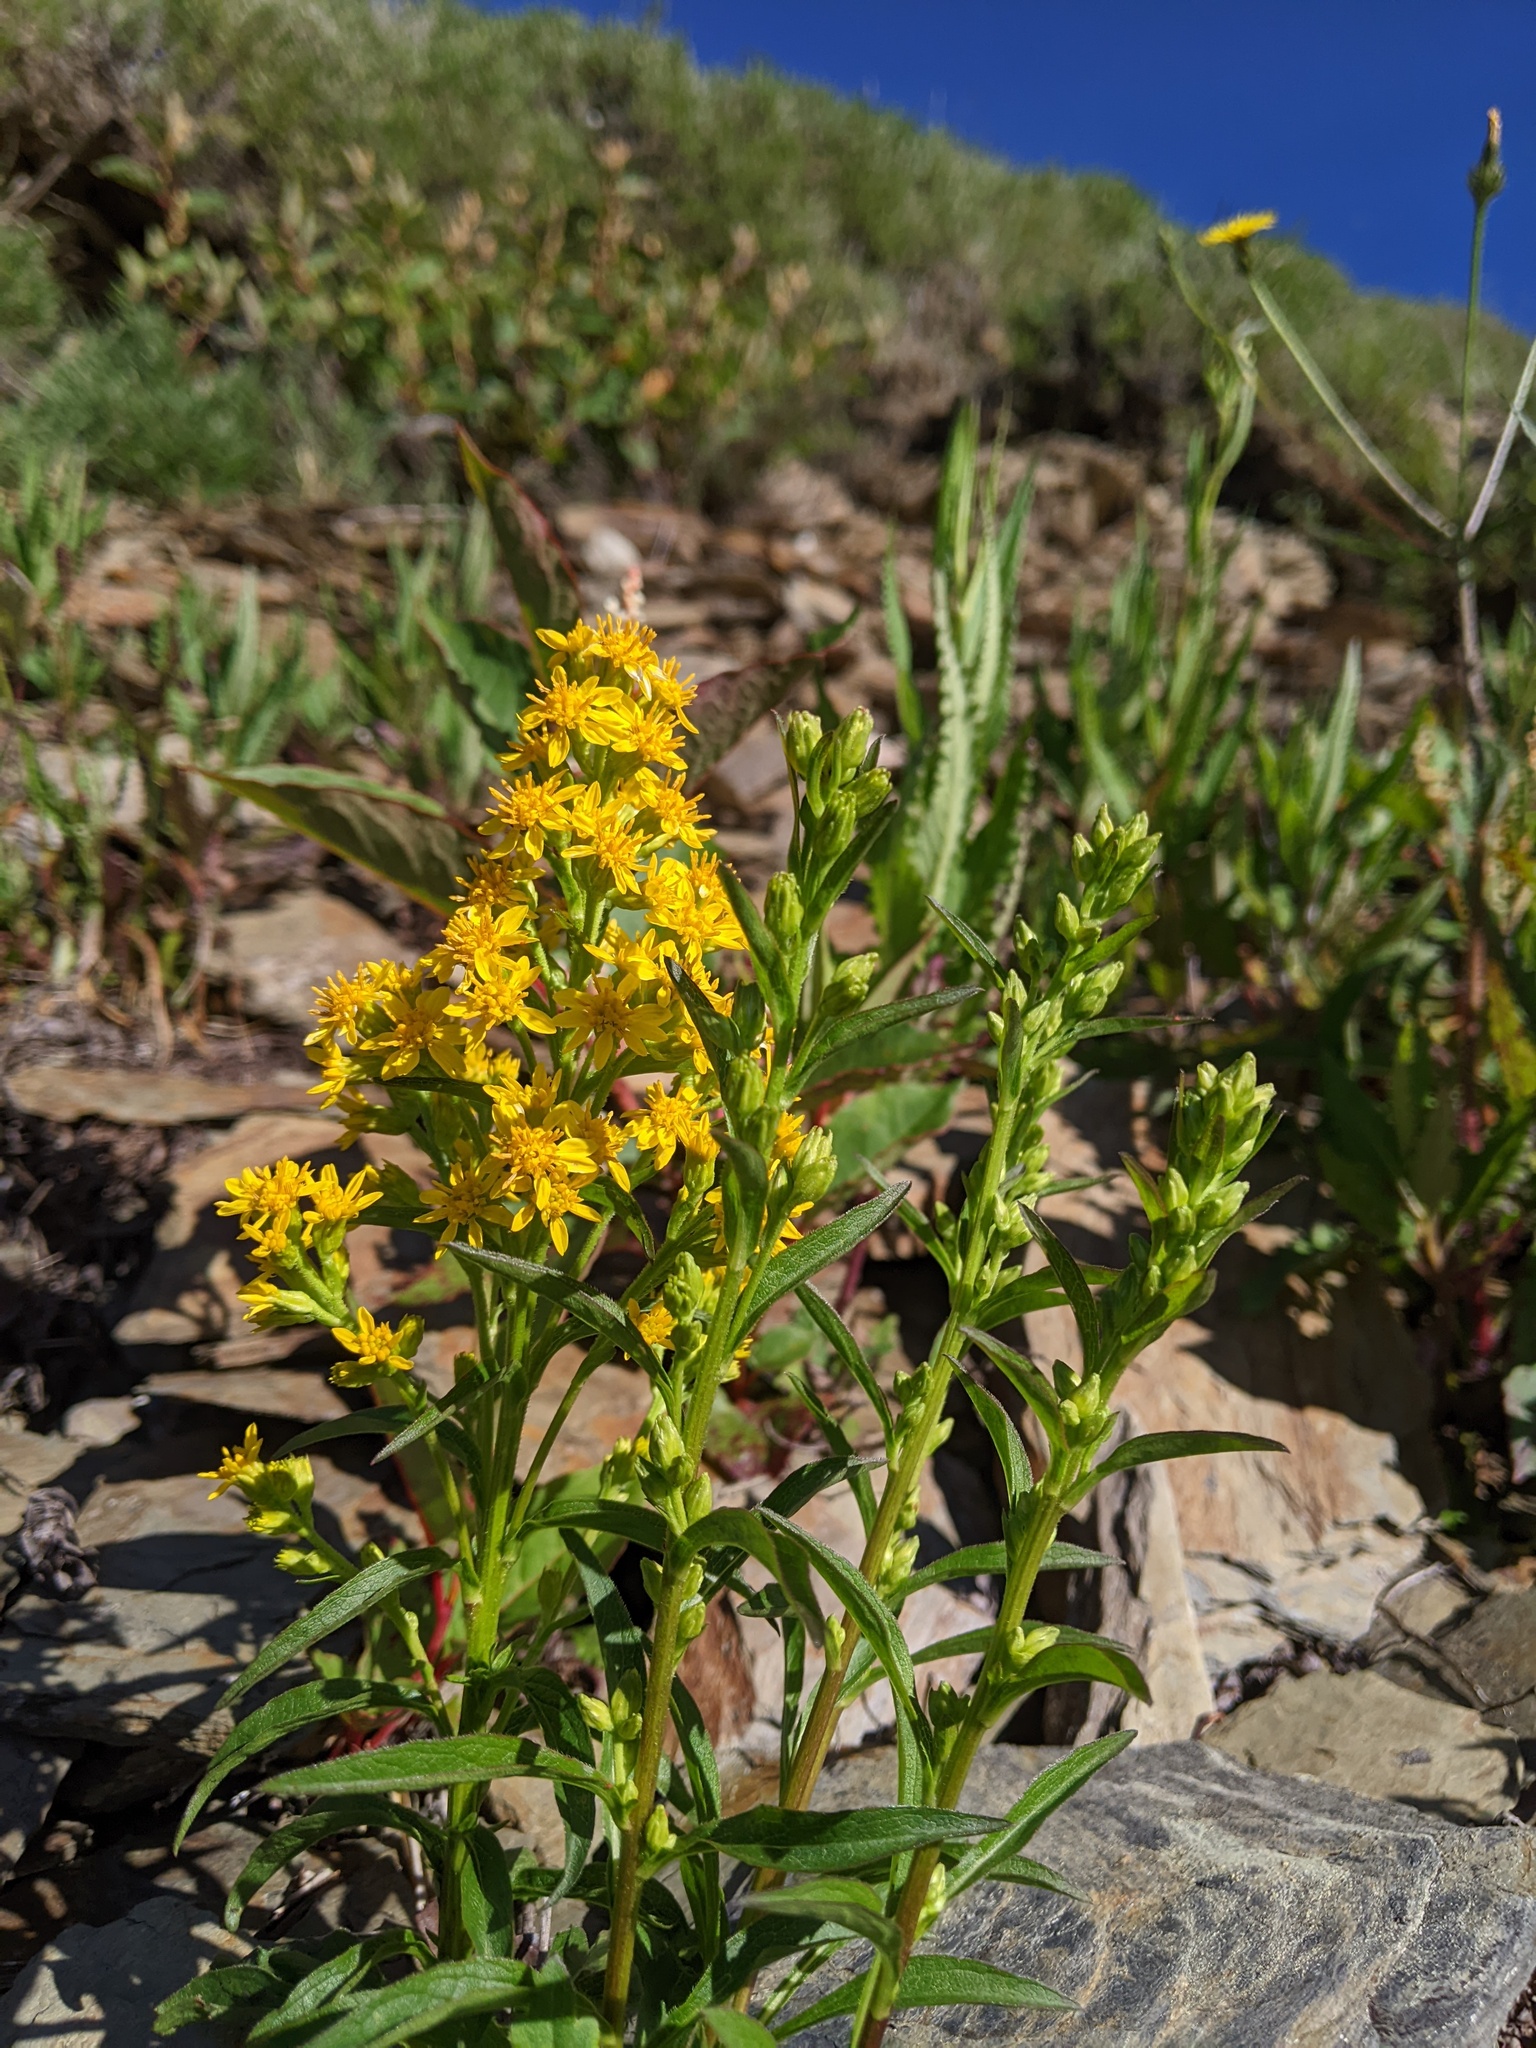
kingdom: Plantae
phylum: Tracheophyta
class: Magnoliopsida
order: Asterales
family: Asteraceae
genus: Solidago
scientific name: Solidago decurrens
